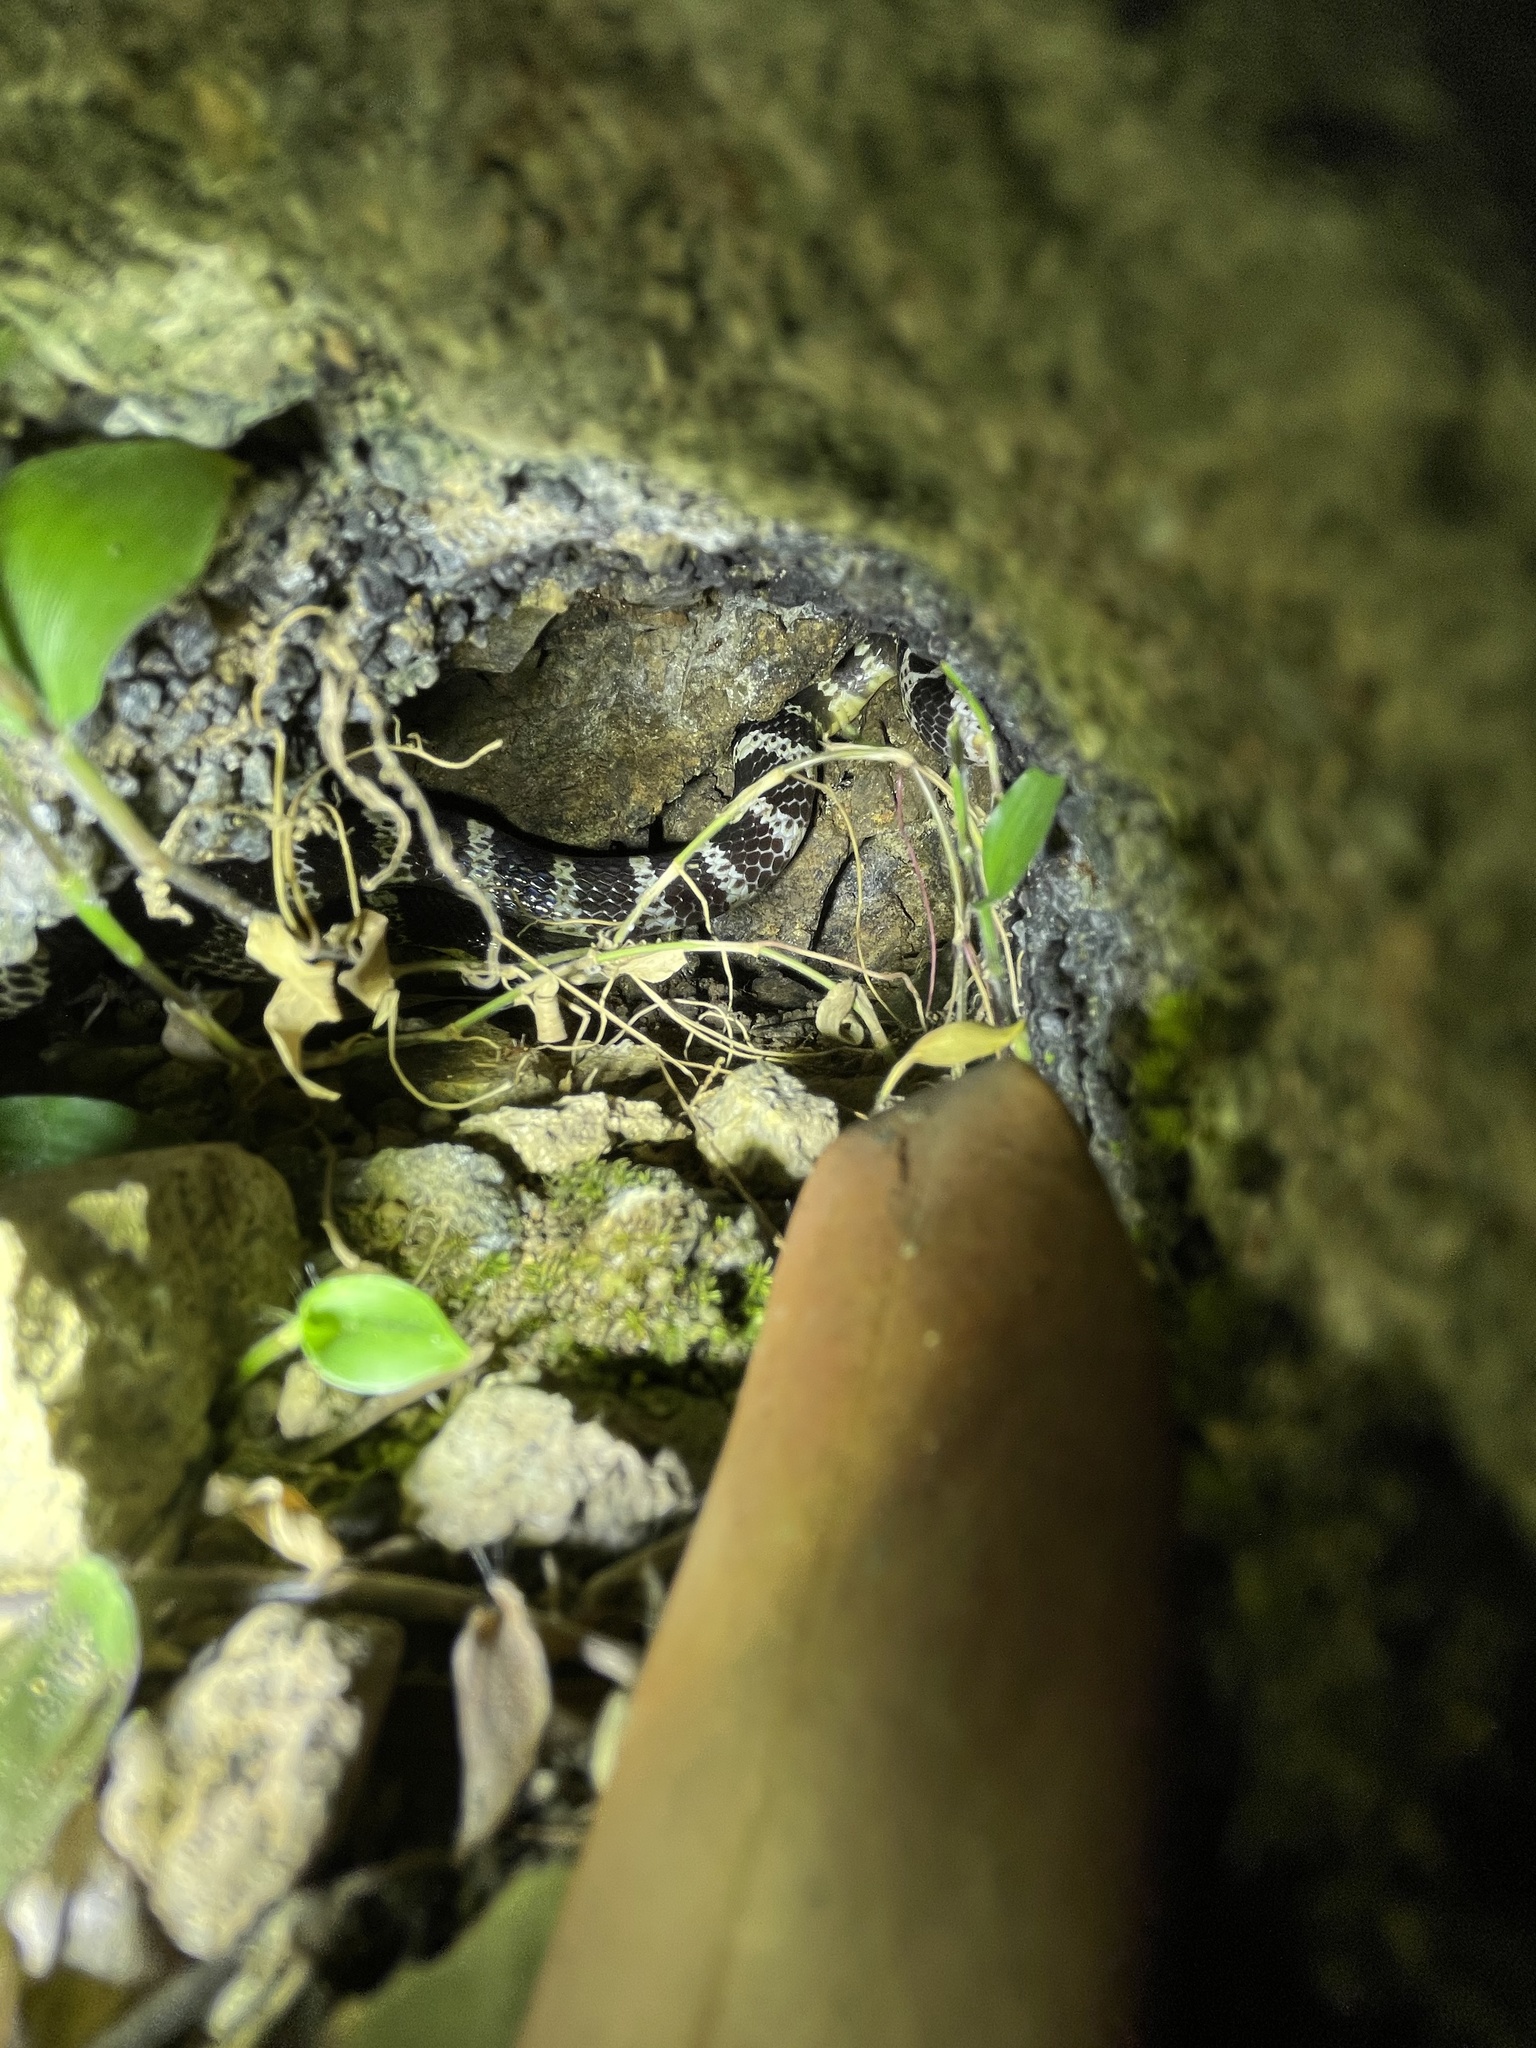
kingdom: Animalia
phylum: Chordata
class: Squamata
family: Elapidae
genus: Bungarus
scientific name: Bungarus multicinctus
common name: Many-banded krait
